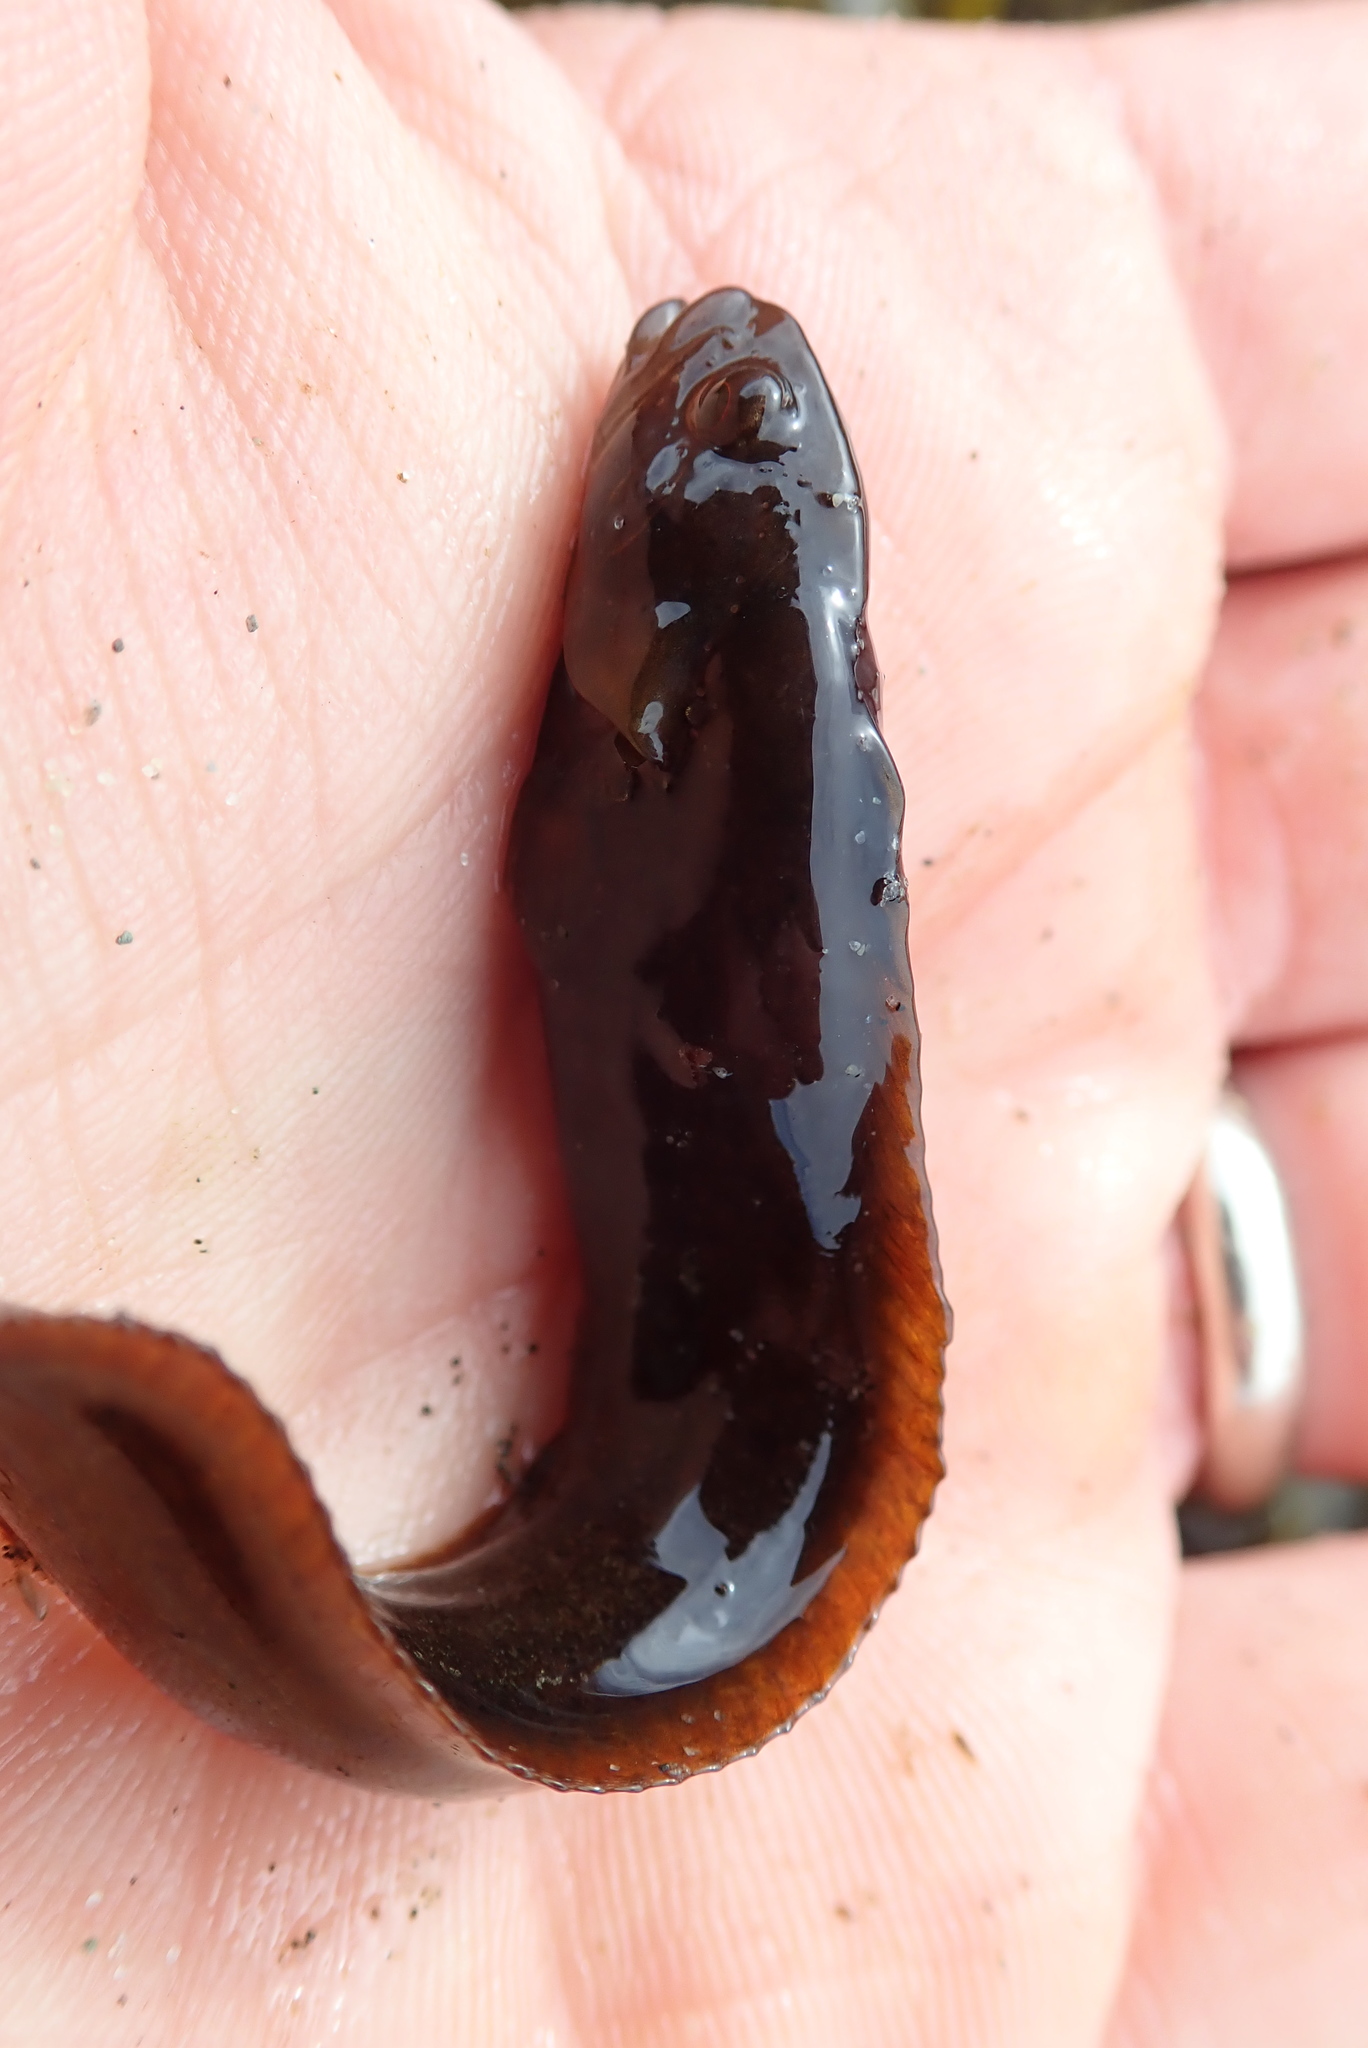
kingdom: Animalia
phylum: Chordata
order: Perciformes
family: Stichaeidae
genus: Xiphister
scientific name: Xiphister atropurpureus
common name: Black prickleback
